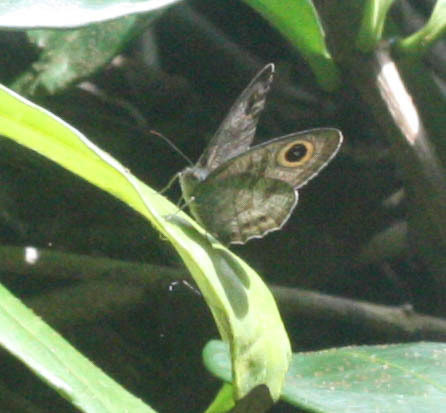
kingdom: Animalia
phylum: Arthropoda
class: Insecta
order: Lepidoptera
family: Nymphalidae
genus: Ypthima
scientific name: Ypthima baldus
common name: Common five-ring
